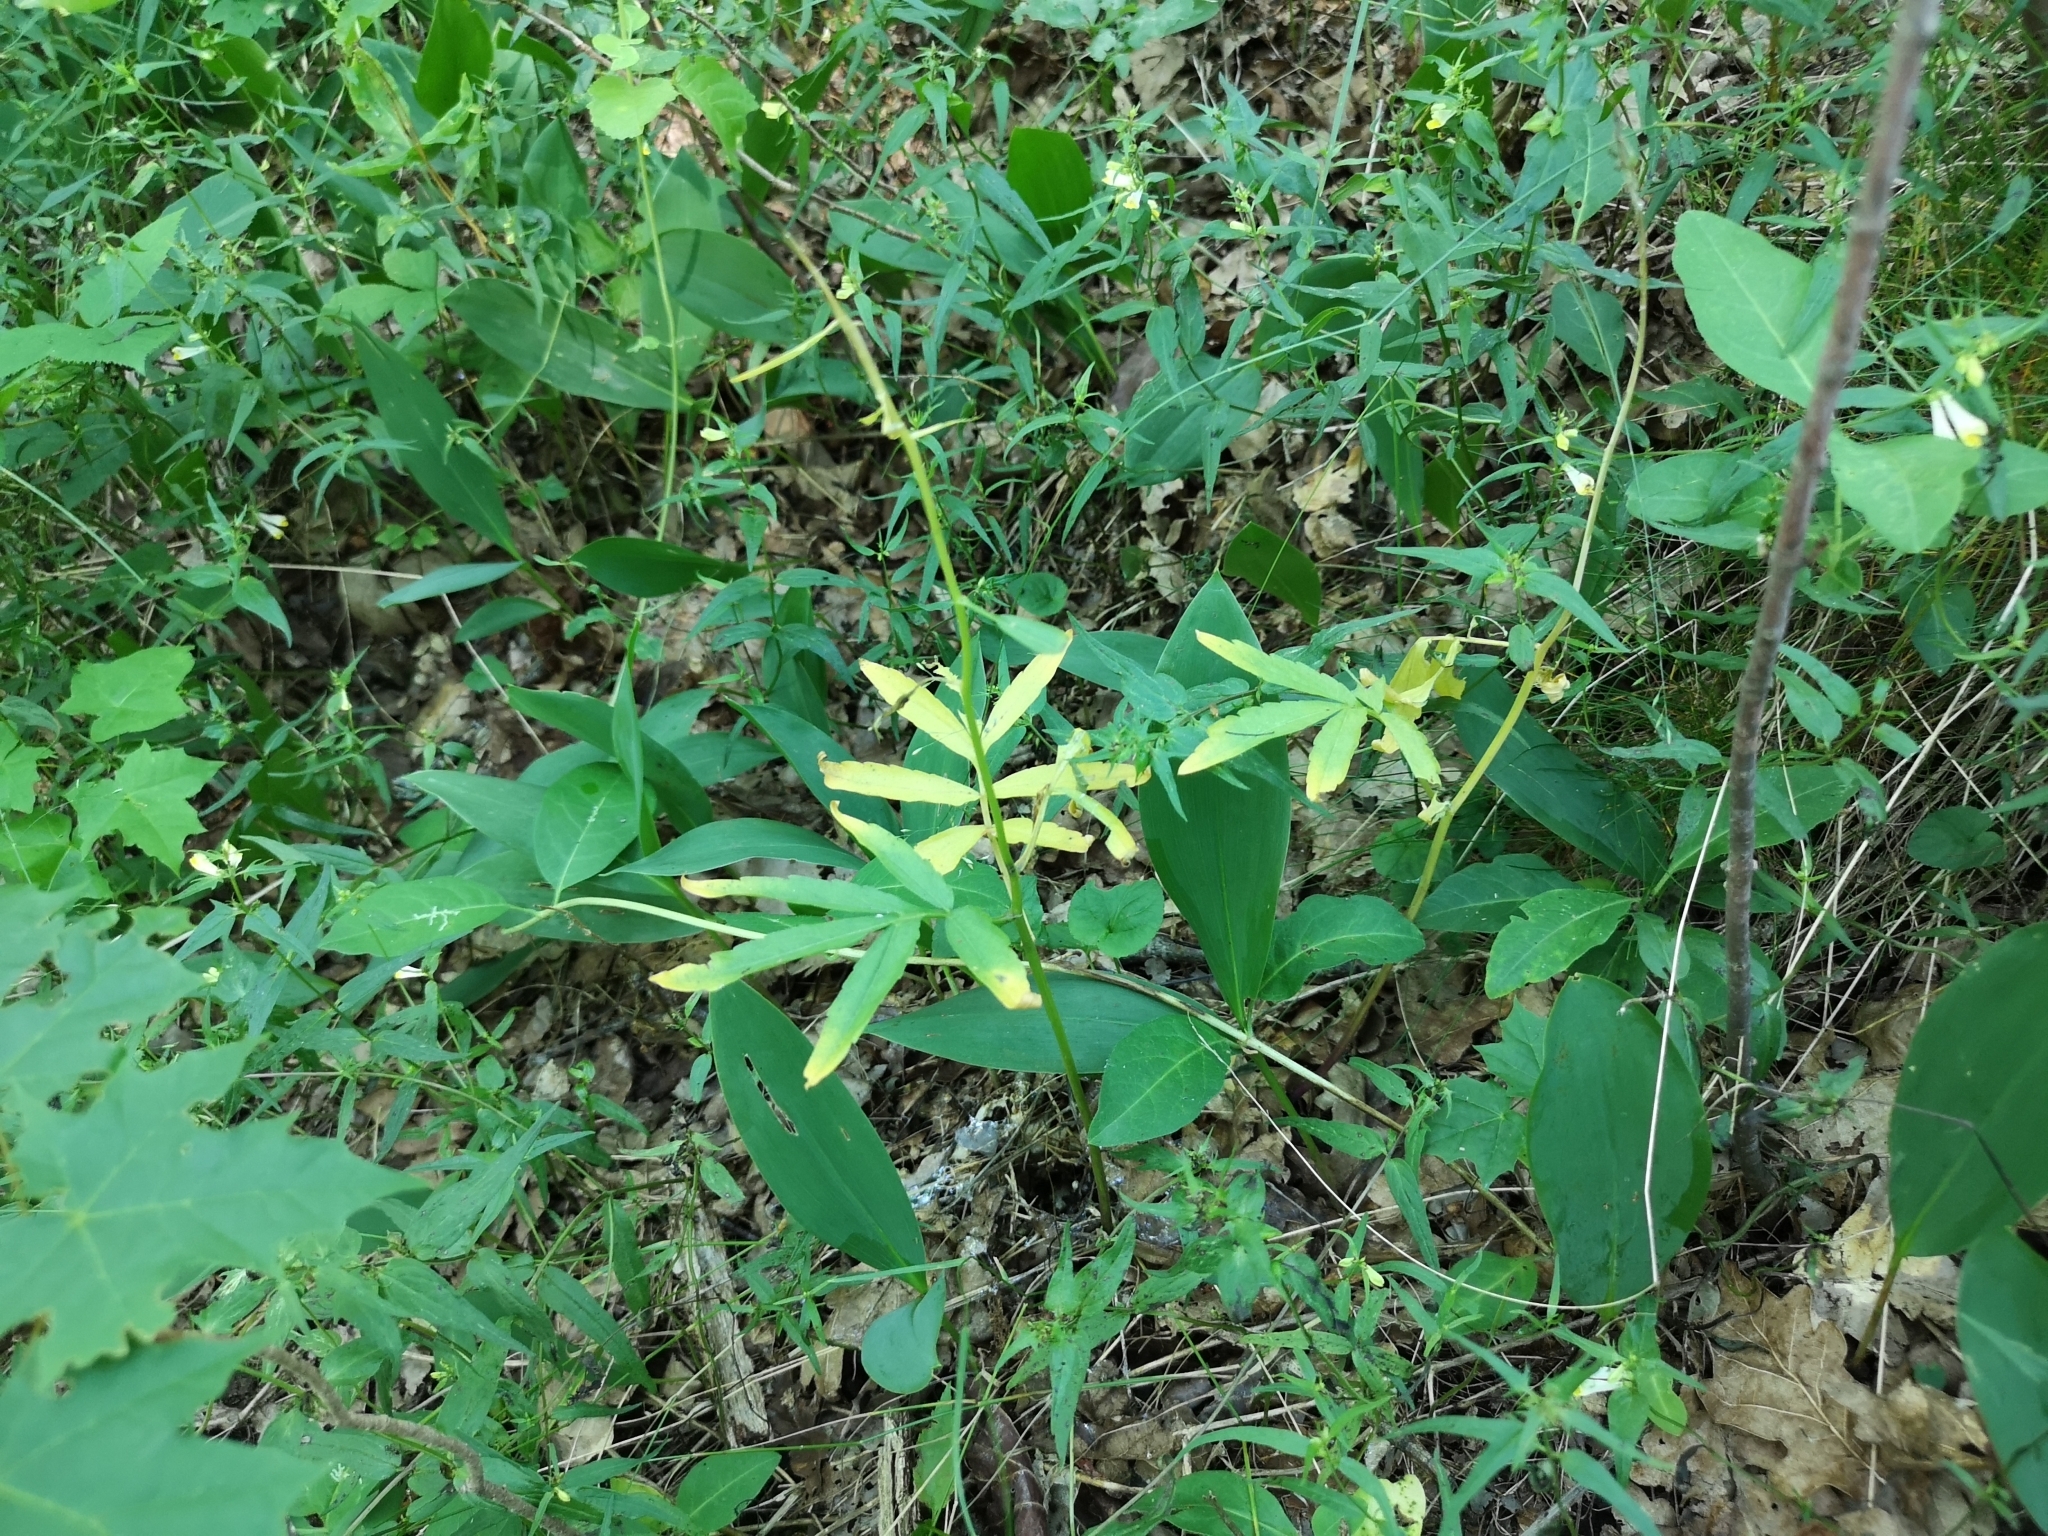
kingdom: Plantae
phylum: Tracheophyta
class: Magnoliopsida
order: Brassicales
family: Brassicaceae
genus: Cardamine
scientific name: Cardamine bulbifera
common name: Coralroot bittercress
